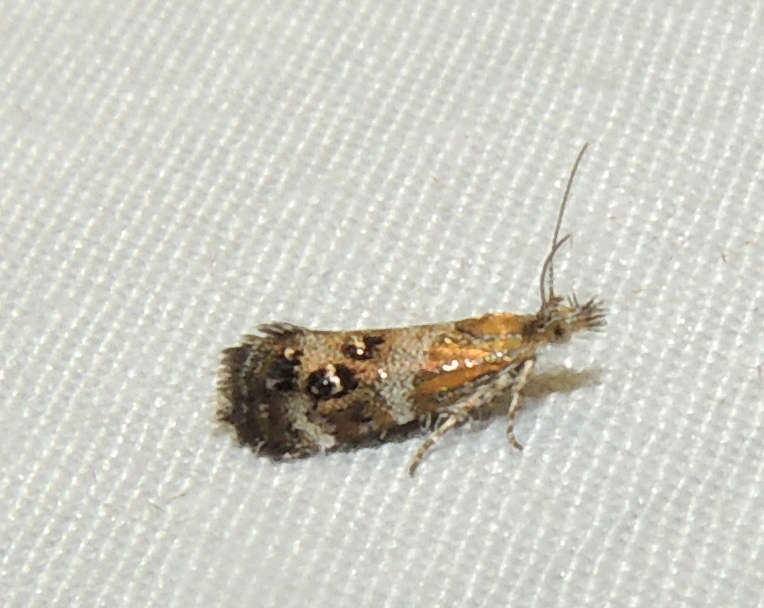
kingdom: Animalia
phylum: Arthropoda
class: Insecta
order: Lepidoptera
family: Choreutidae
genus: Tebenna
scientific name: Tebenna micalis
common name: Vagrant twitcher
